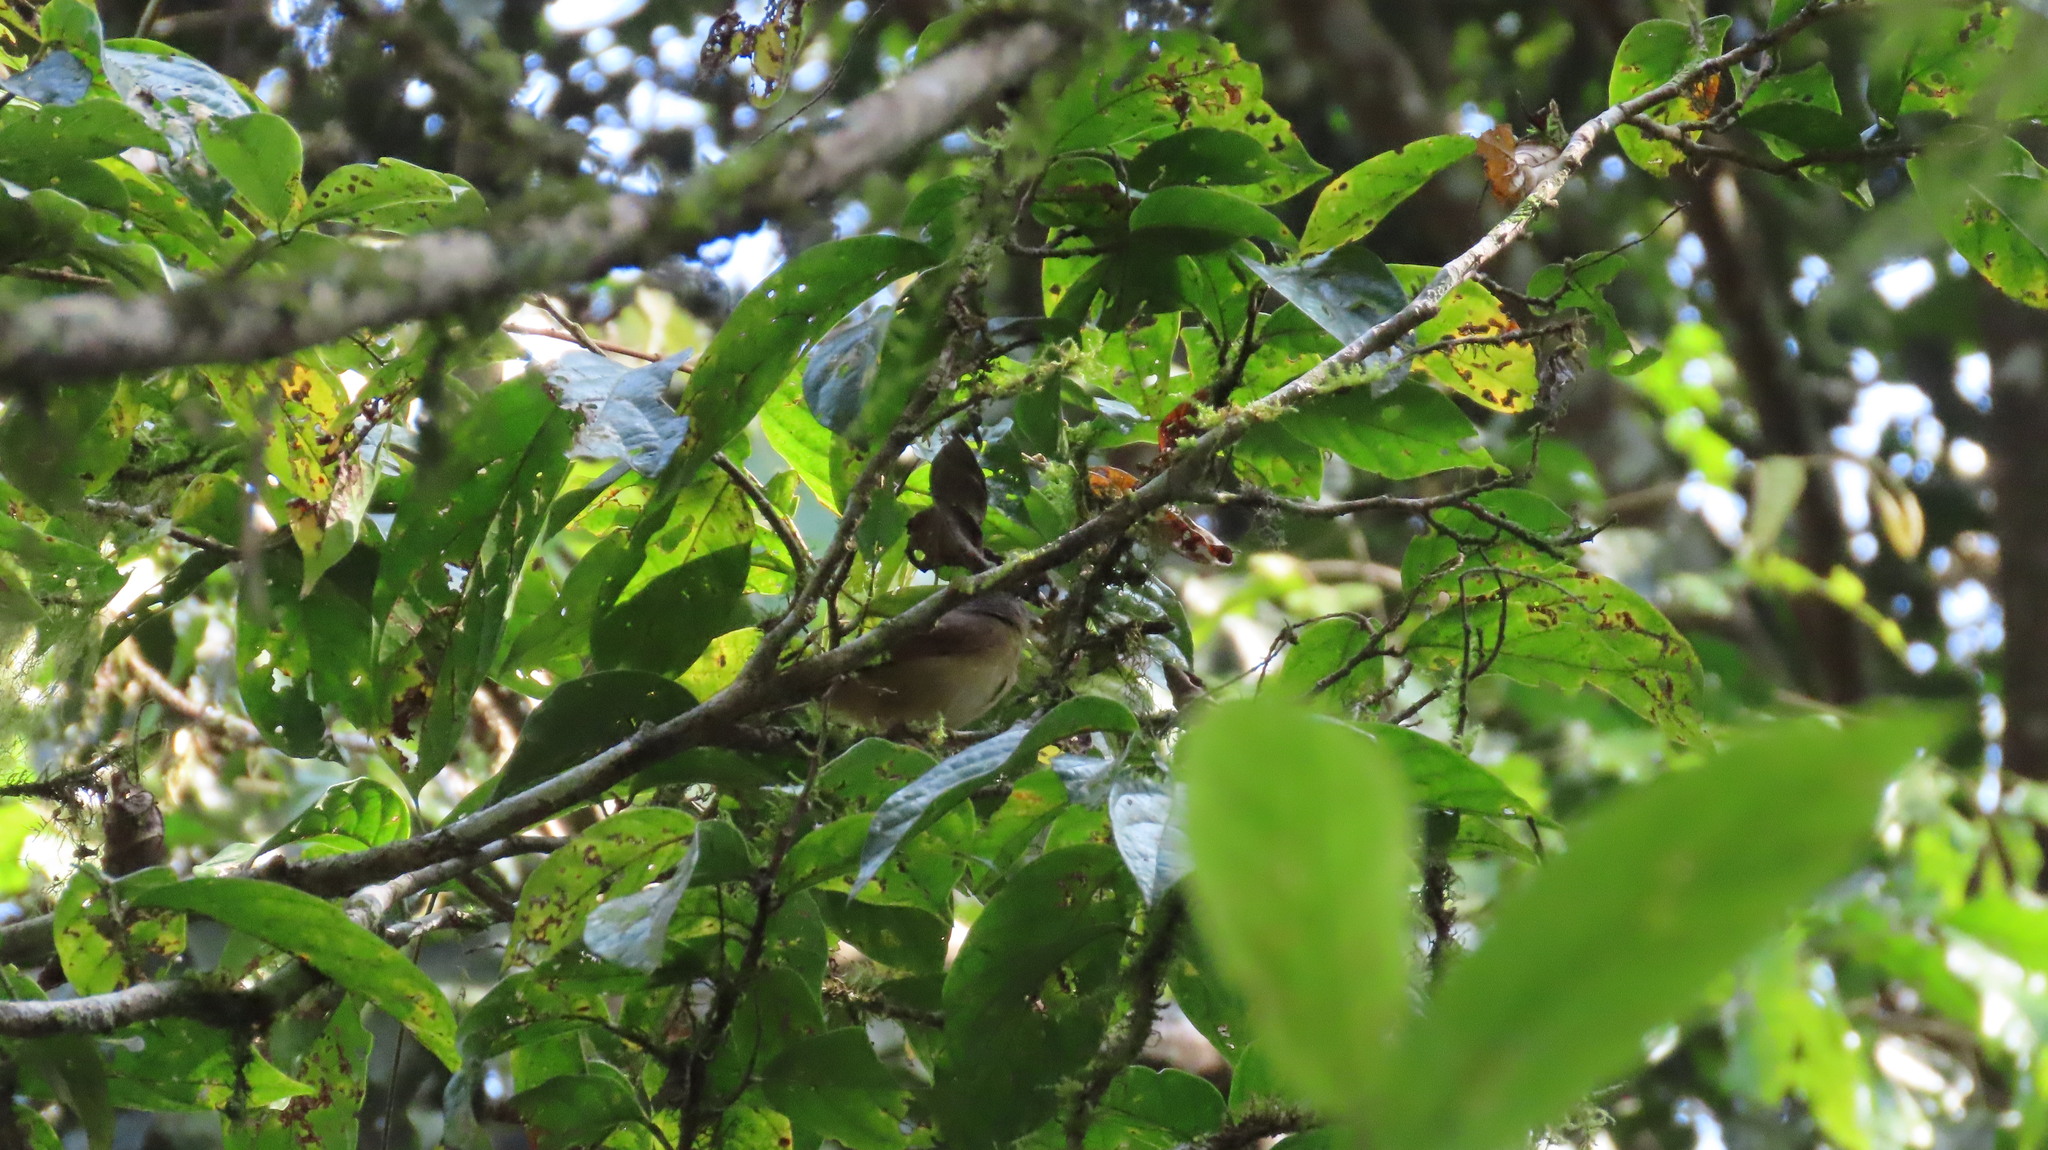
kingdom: Animalia
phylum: Chordata
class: Aves
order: Passeriformes
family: Pellorneidae
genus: Alcippe
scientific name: Alcippe poioicephala
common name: Brown-cheeked fulvetta
